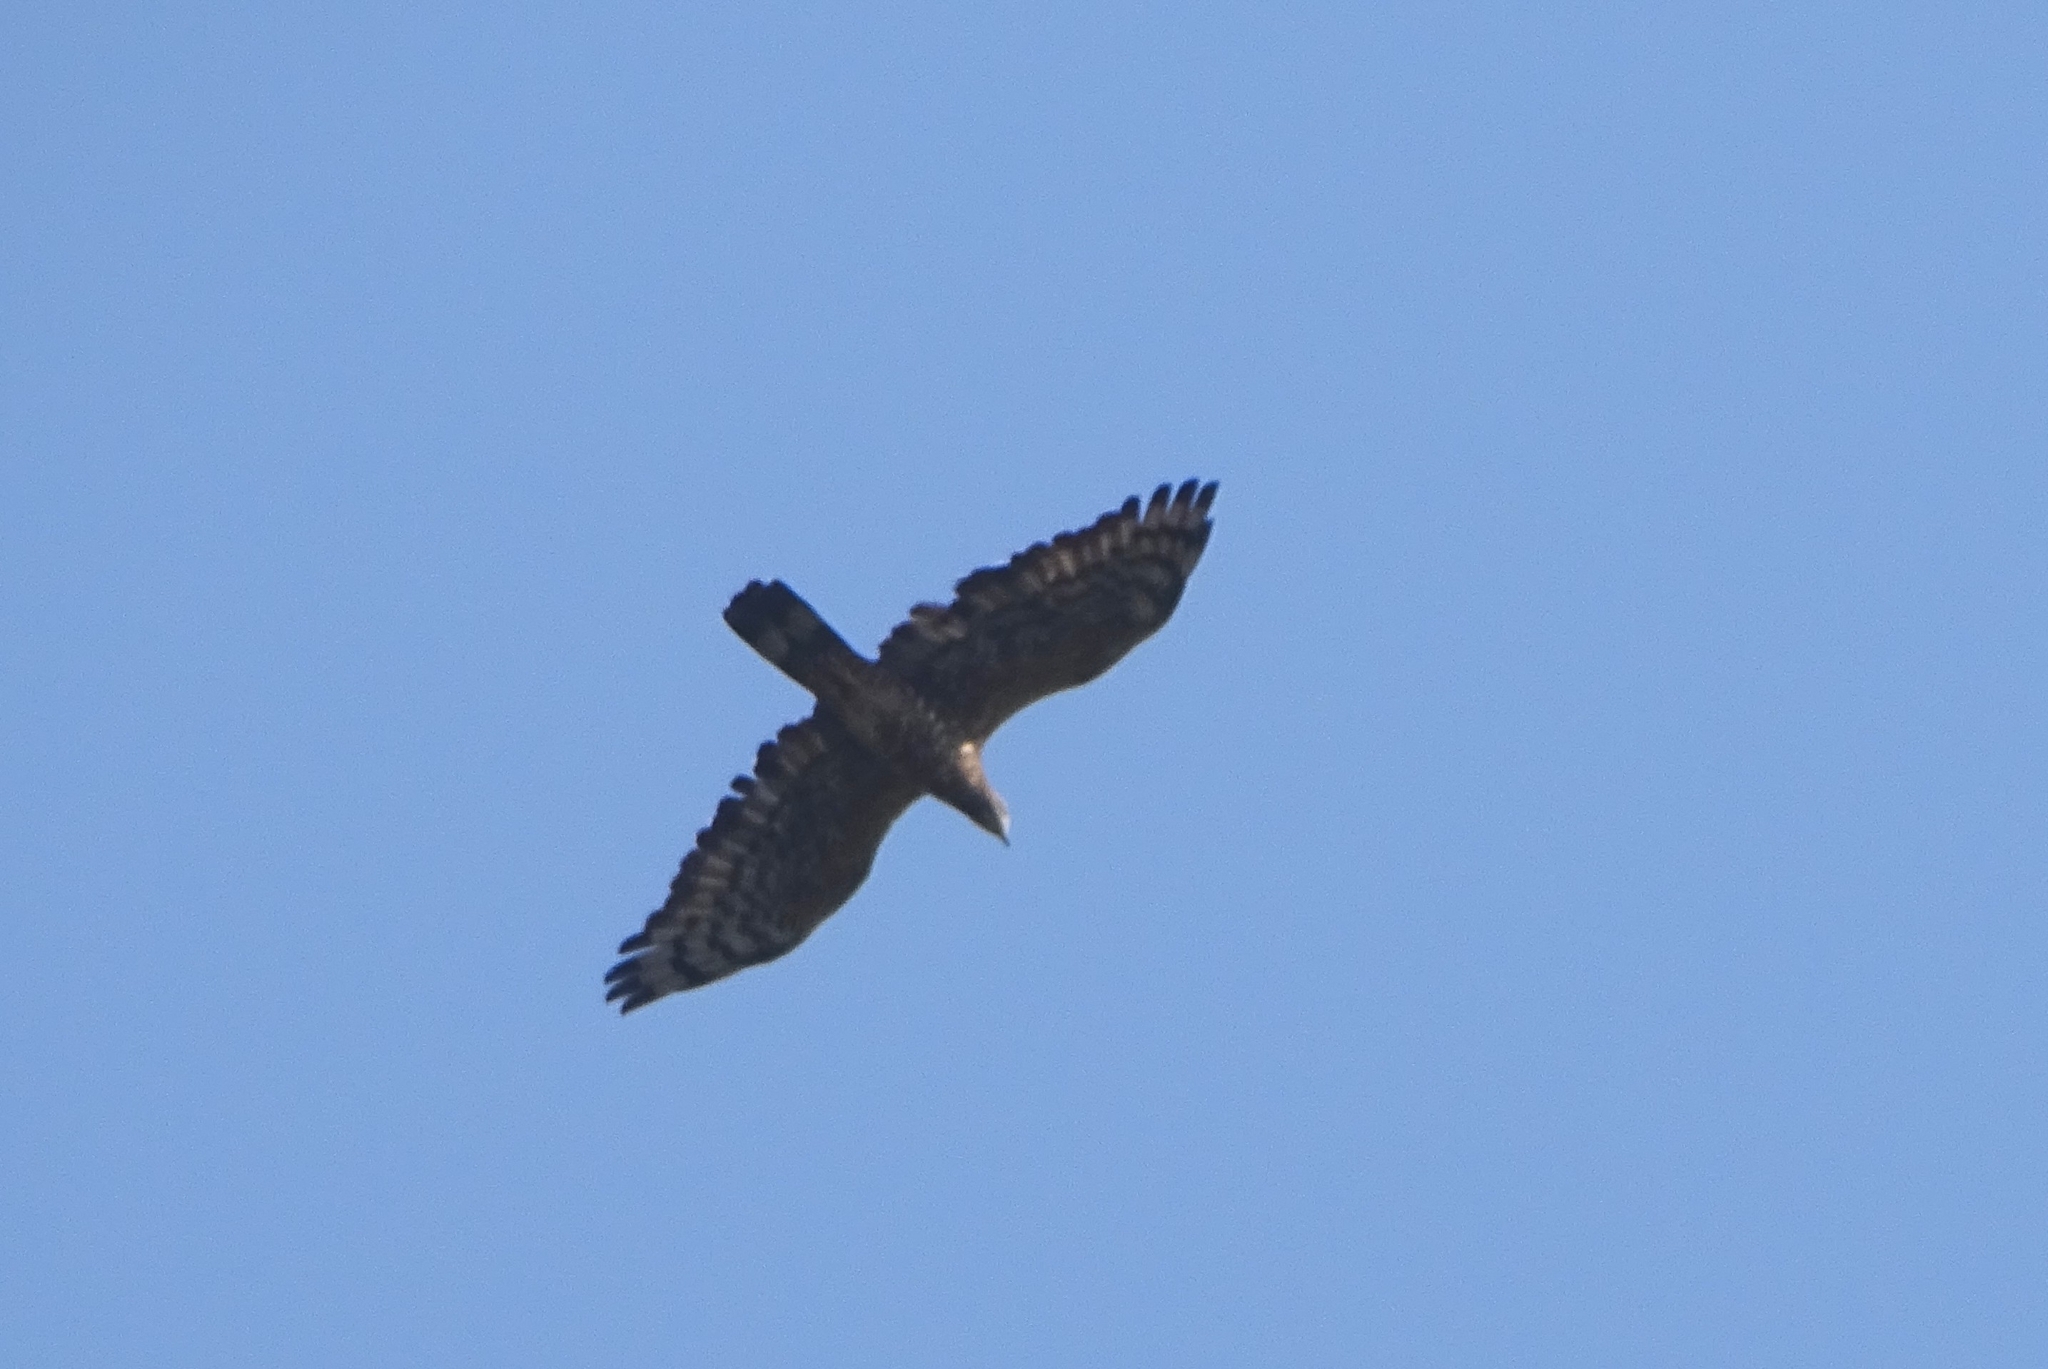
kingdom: Animalia
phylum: Chordata
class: Aves
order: Accipitriformes
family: Accipitridae
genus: Pernis
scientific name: Pernis ptilorhynchus
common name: Crested honey buzzard
